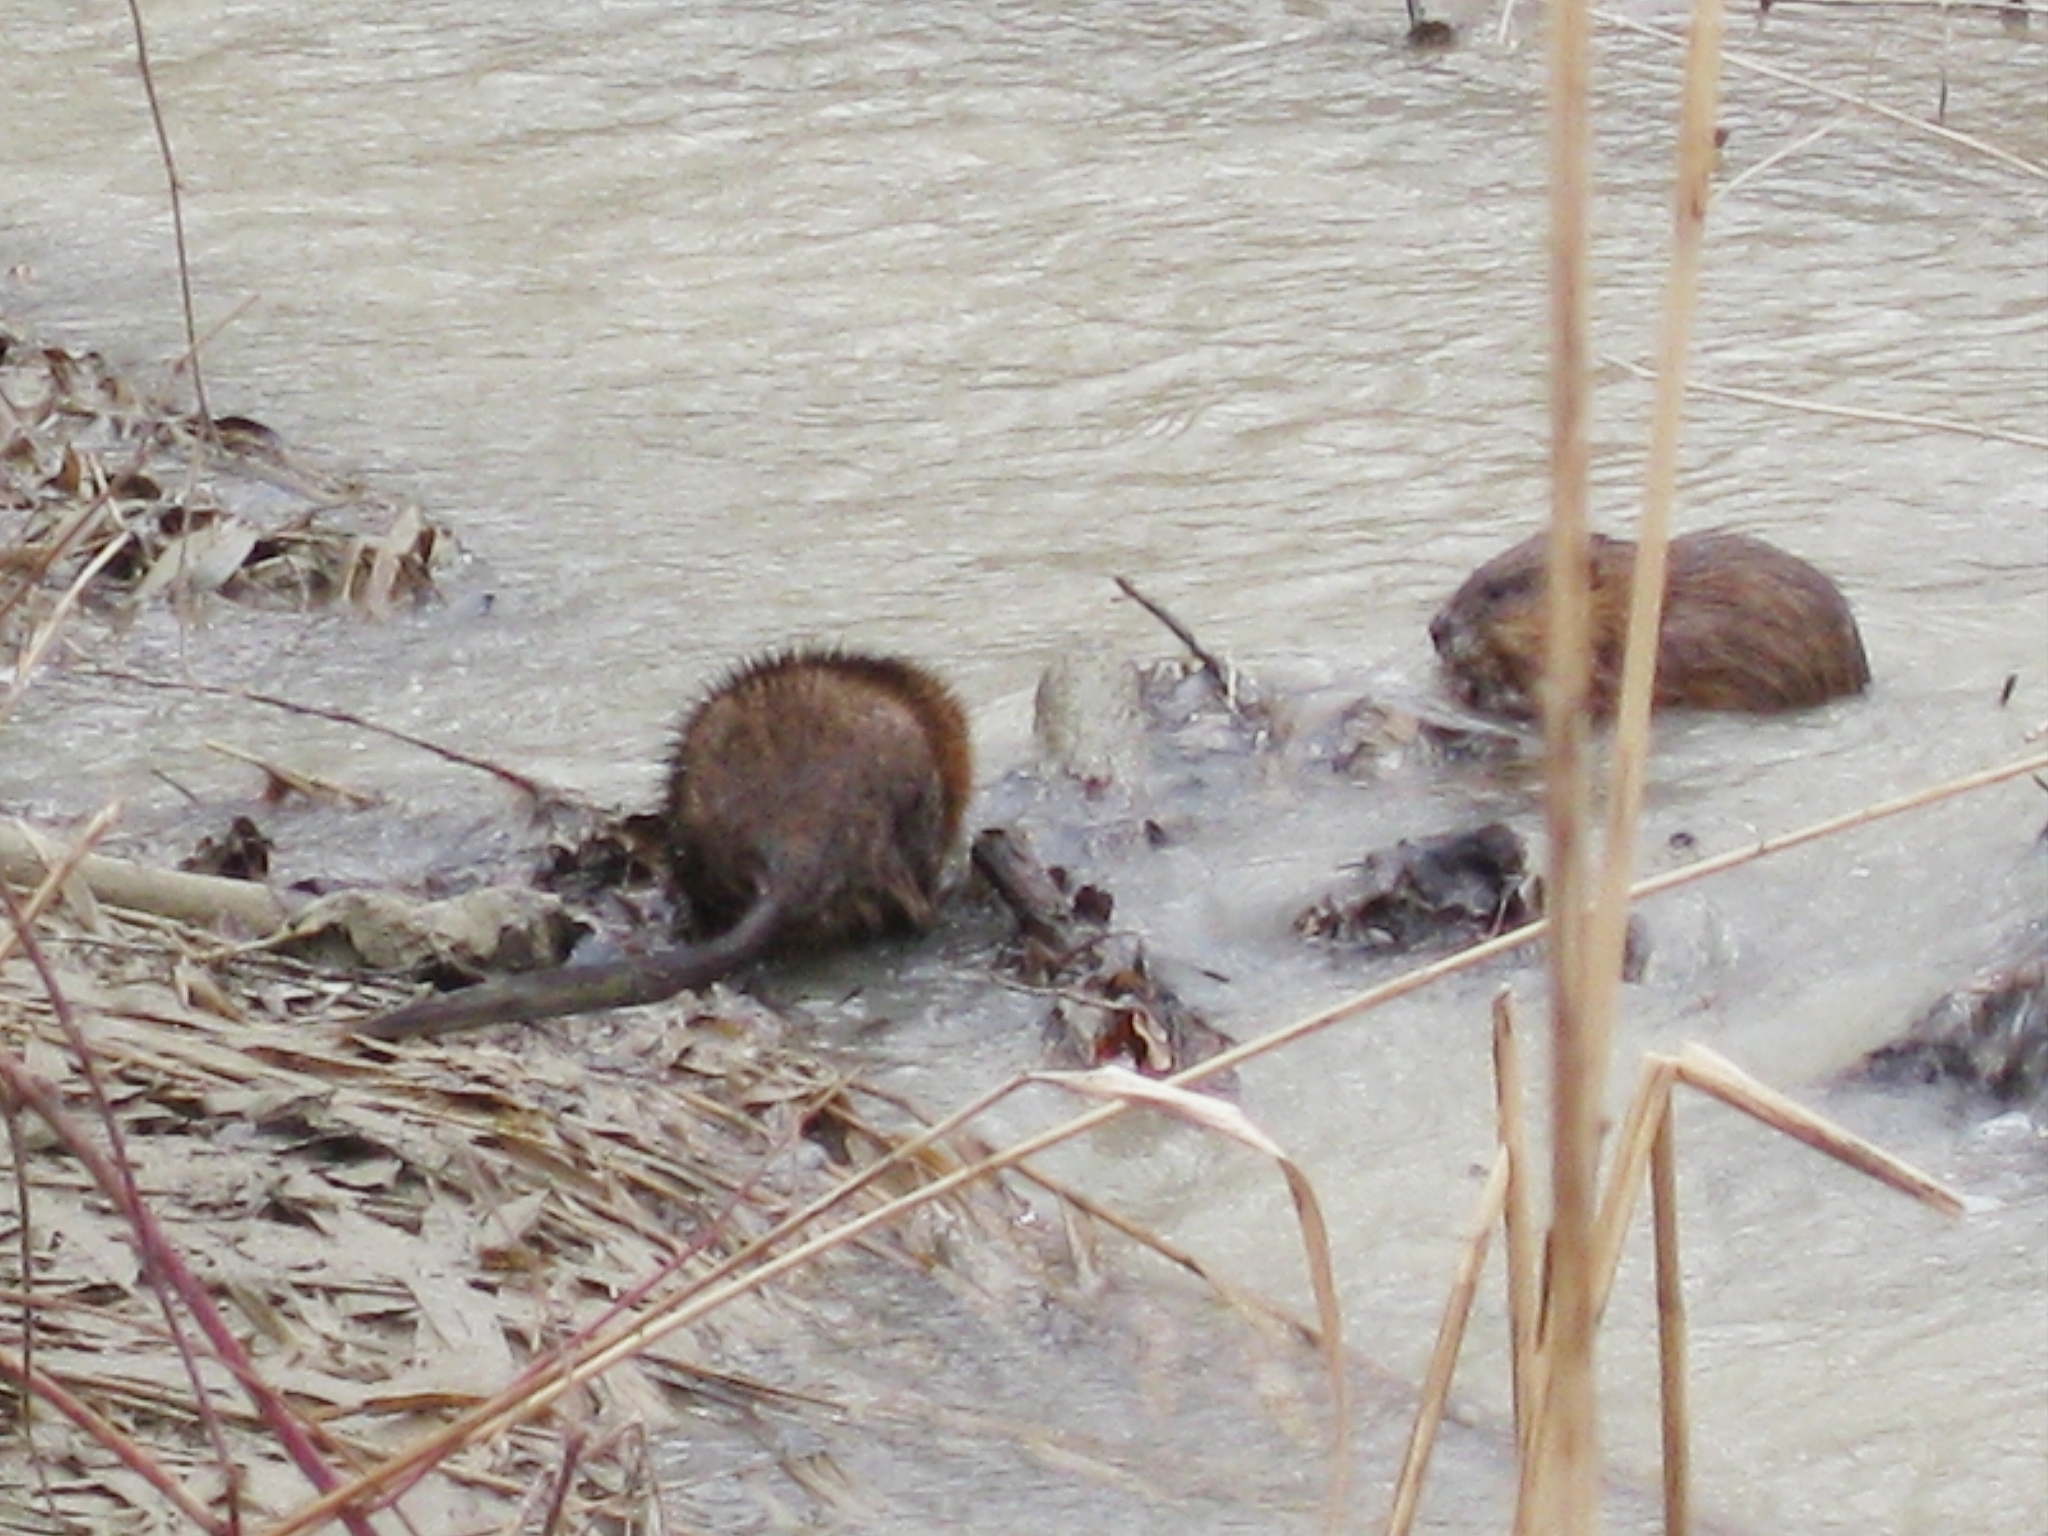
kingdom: Animalia
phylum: Chordata
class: Mammalia
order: Rodentia
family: Cricetidae
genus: Ondatra
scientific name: Ondatra zibethicus
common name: Muskrat
